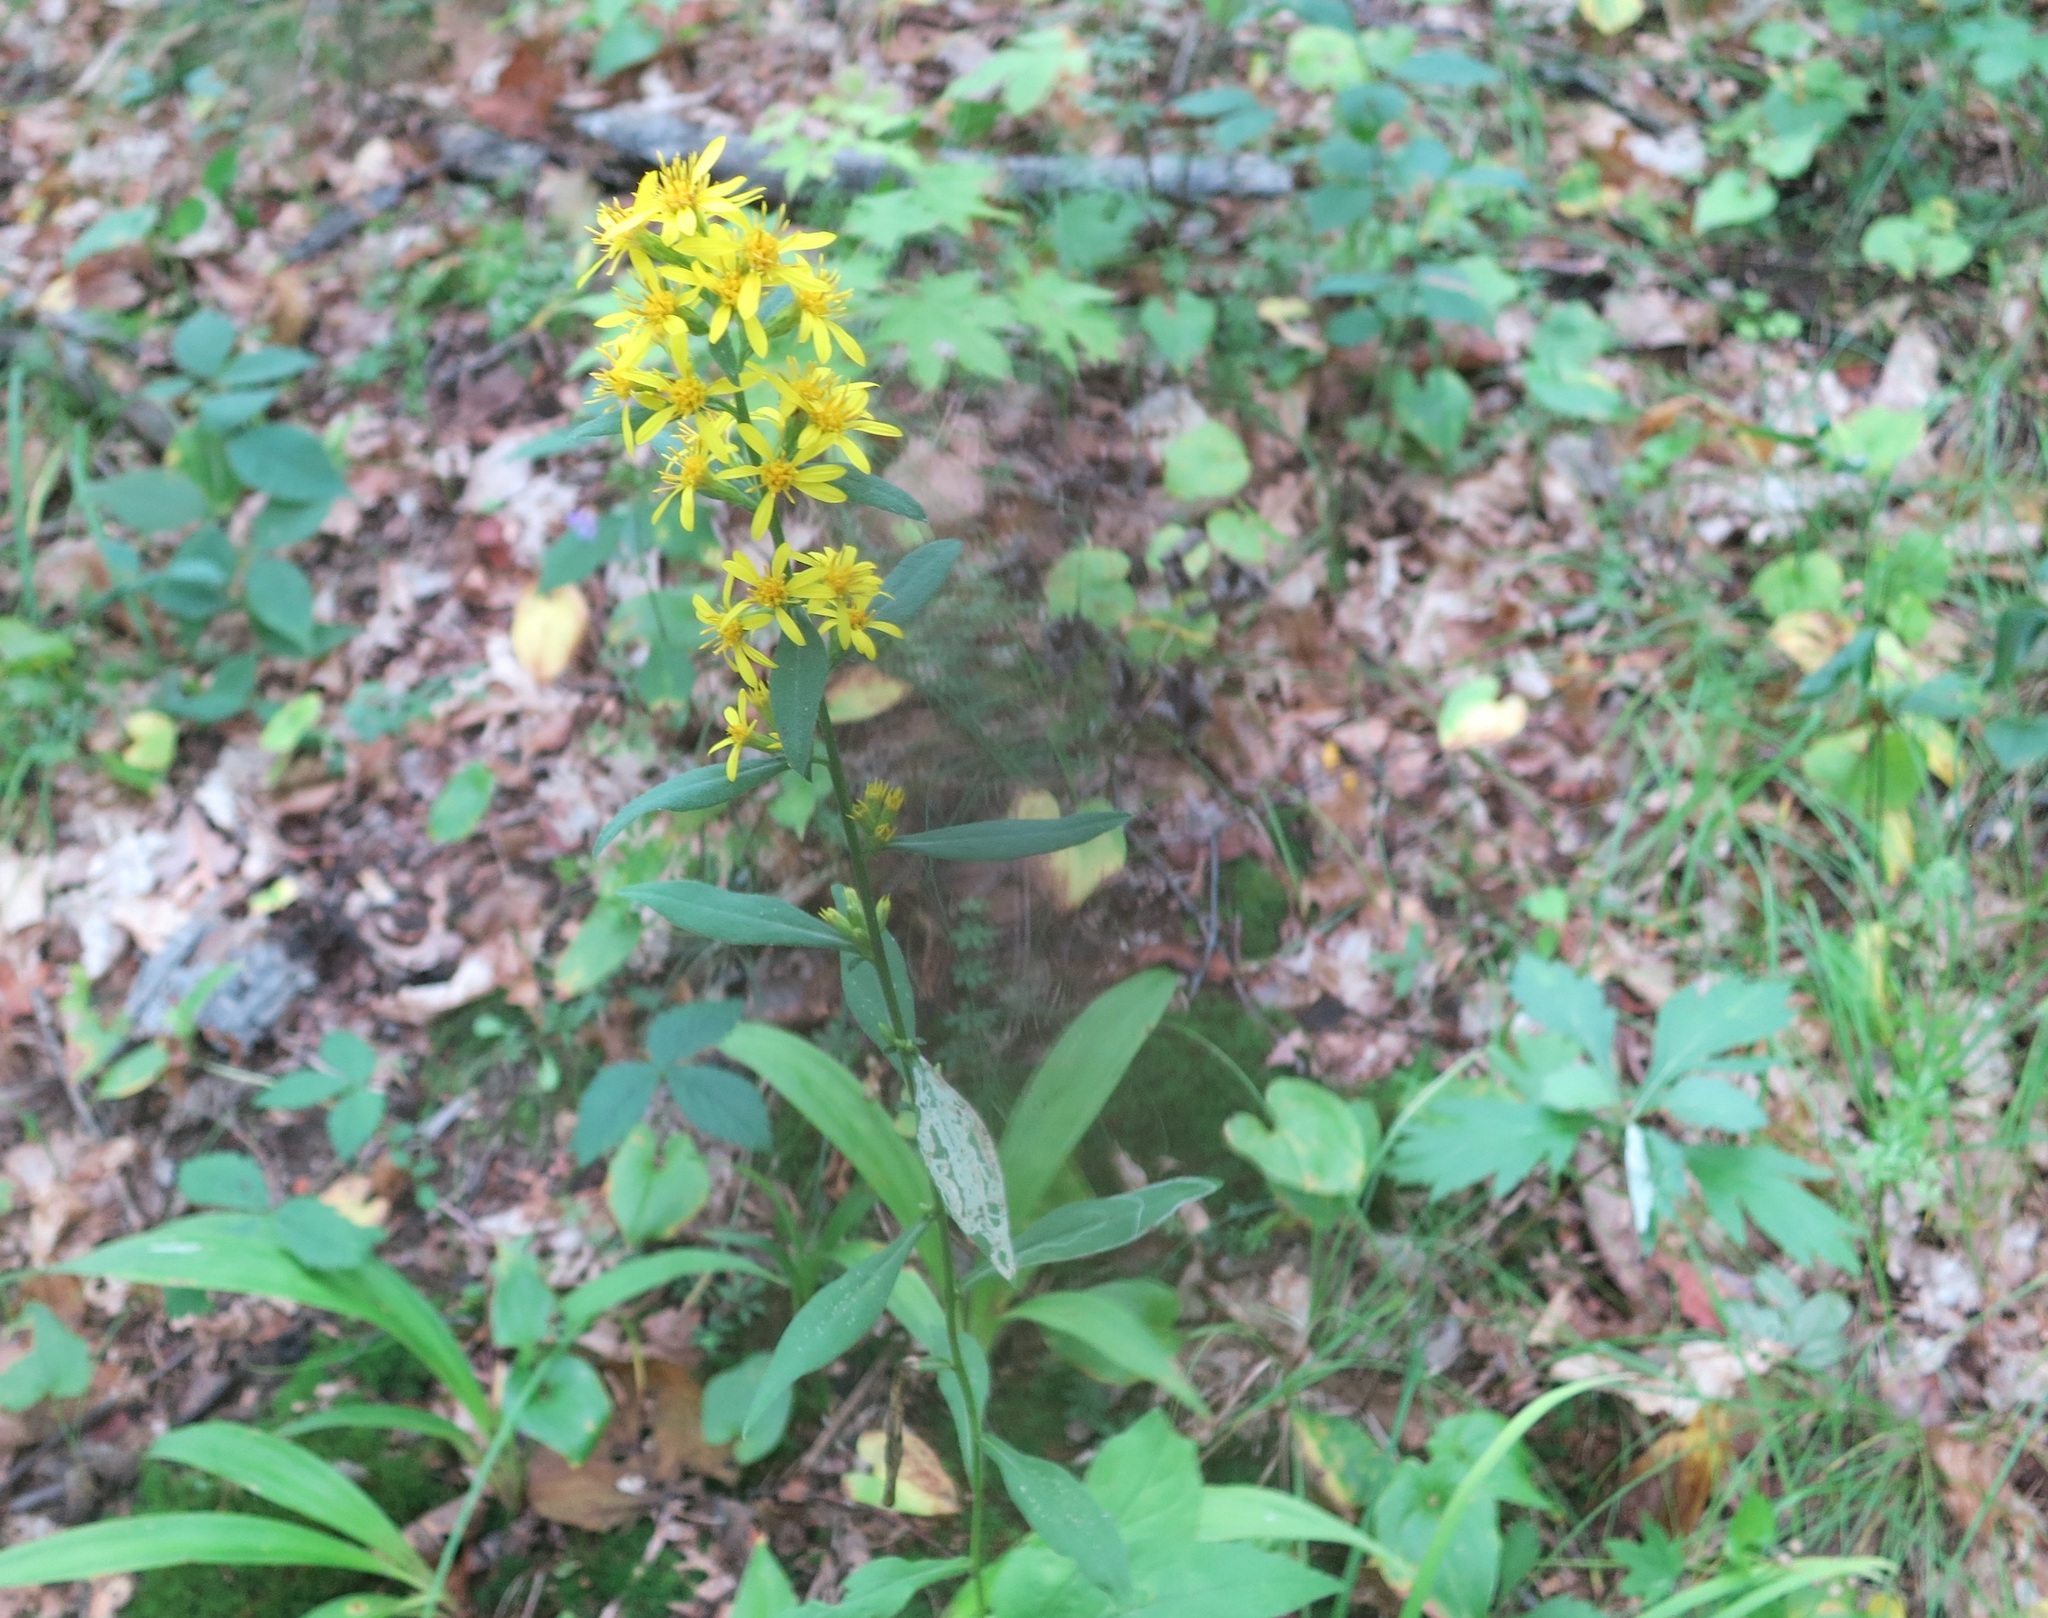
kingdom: Plantae
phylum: Tracheophyta
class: Magnoliopsida
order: Asterales
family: Asteraceae
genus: Solidago
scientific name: Solidago decurrens
